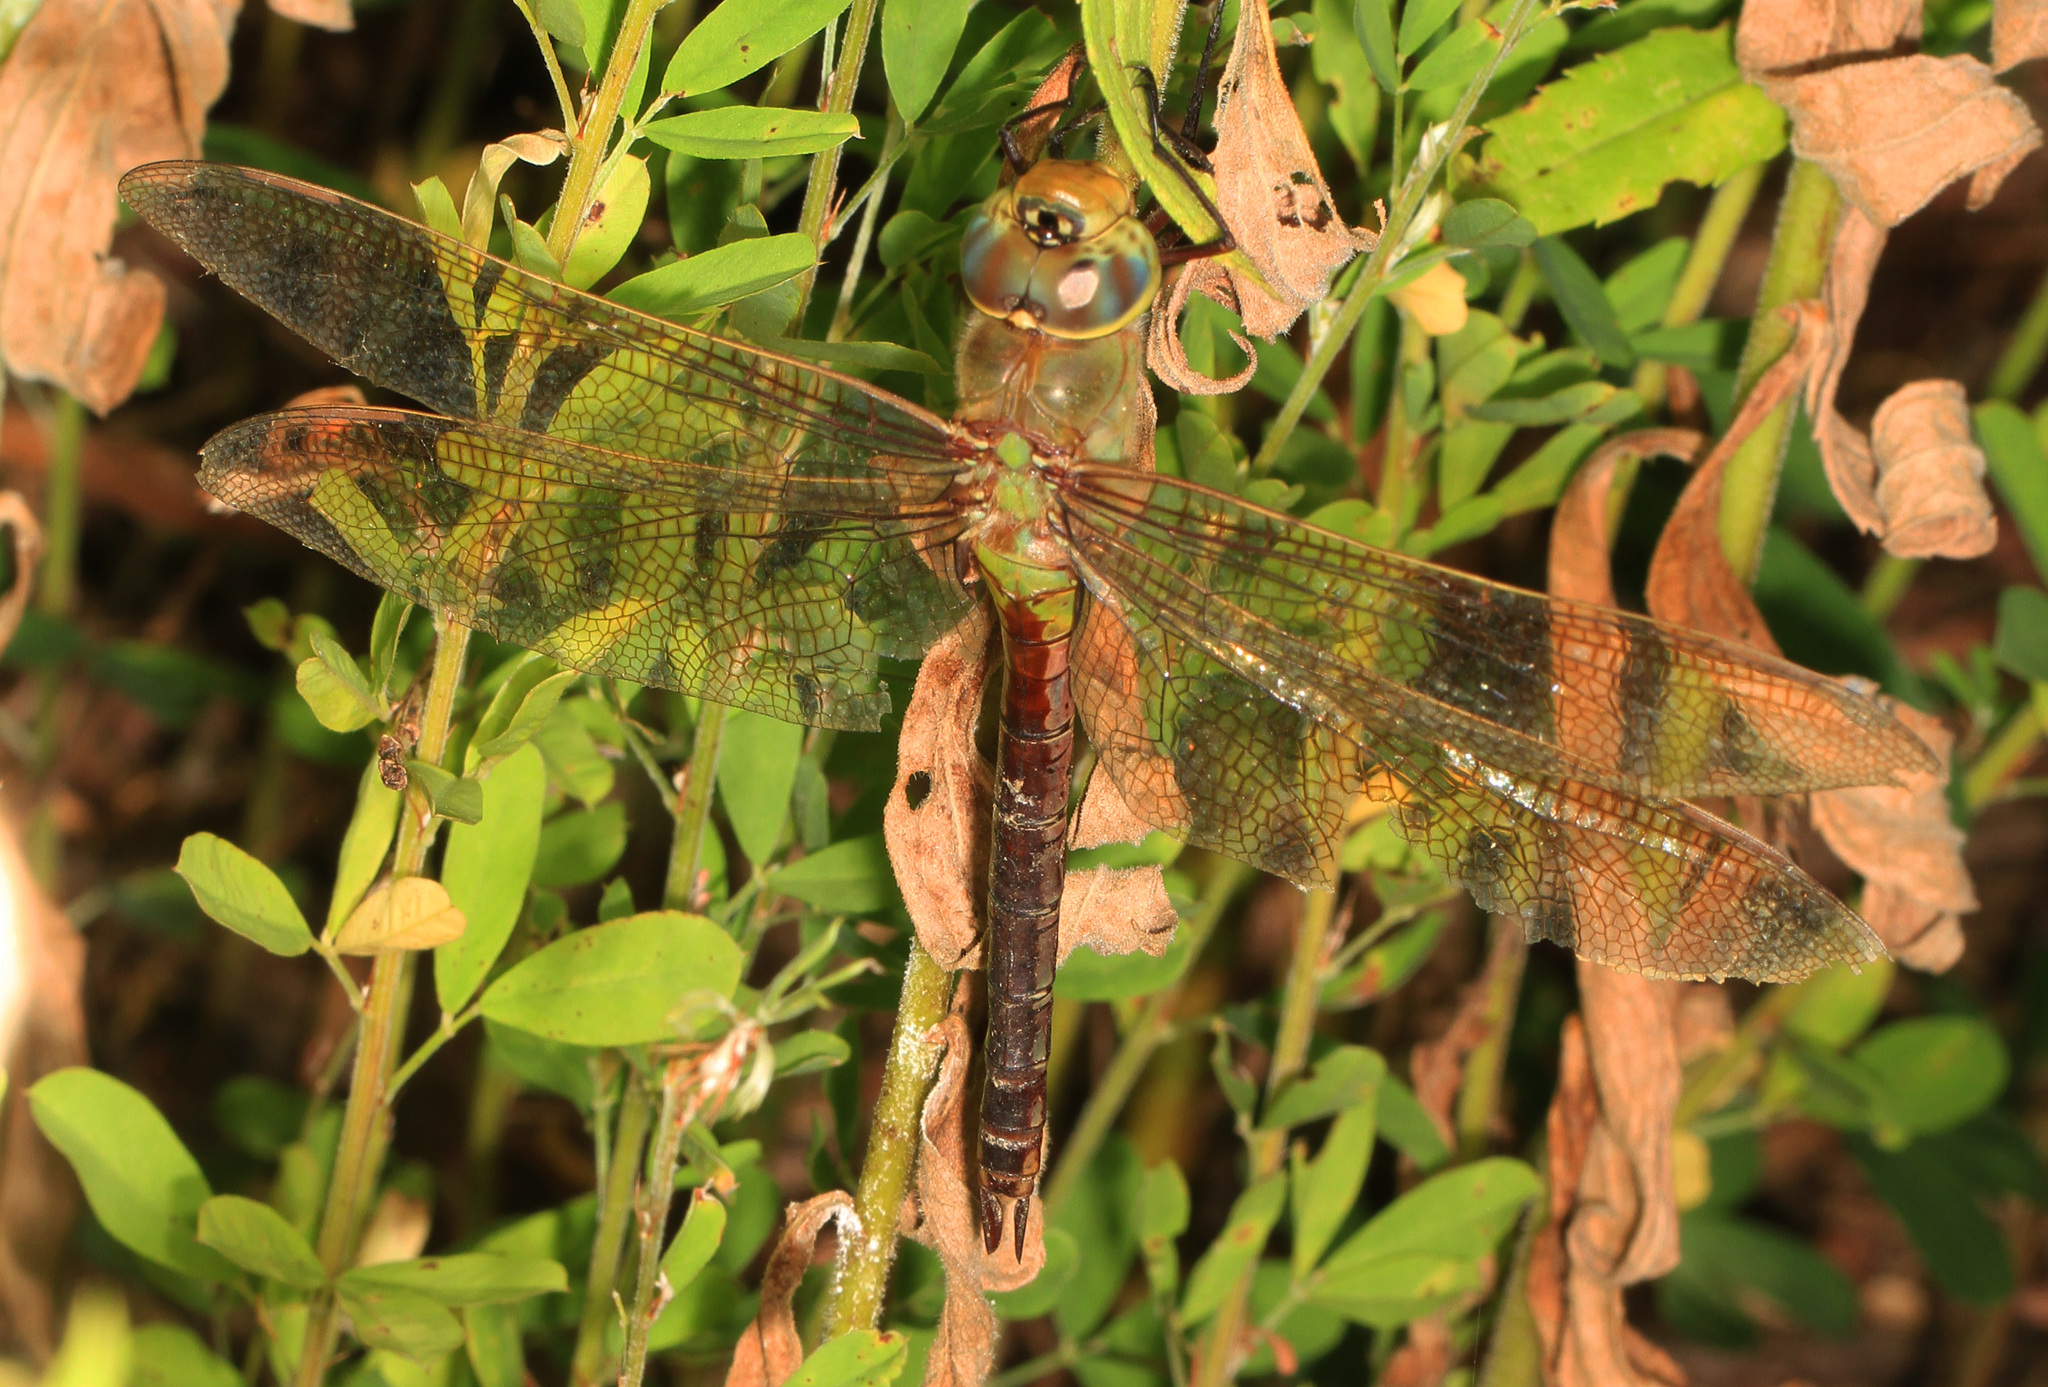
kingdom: Animalia
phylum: Arthropoda
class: Insecta
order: Odonata
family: Aeshnidae
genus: Anax
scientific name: Anax junius
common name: Common green darner
